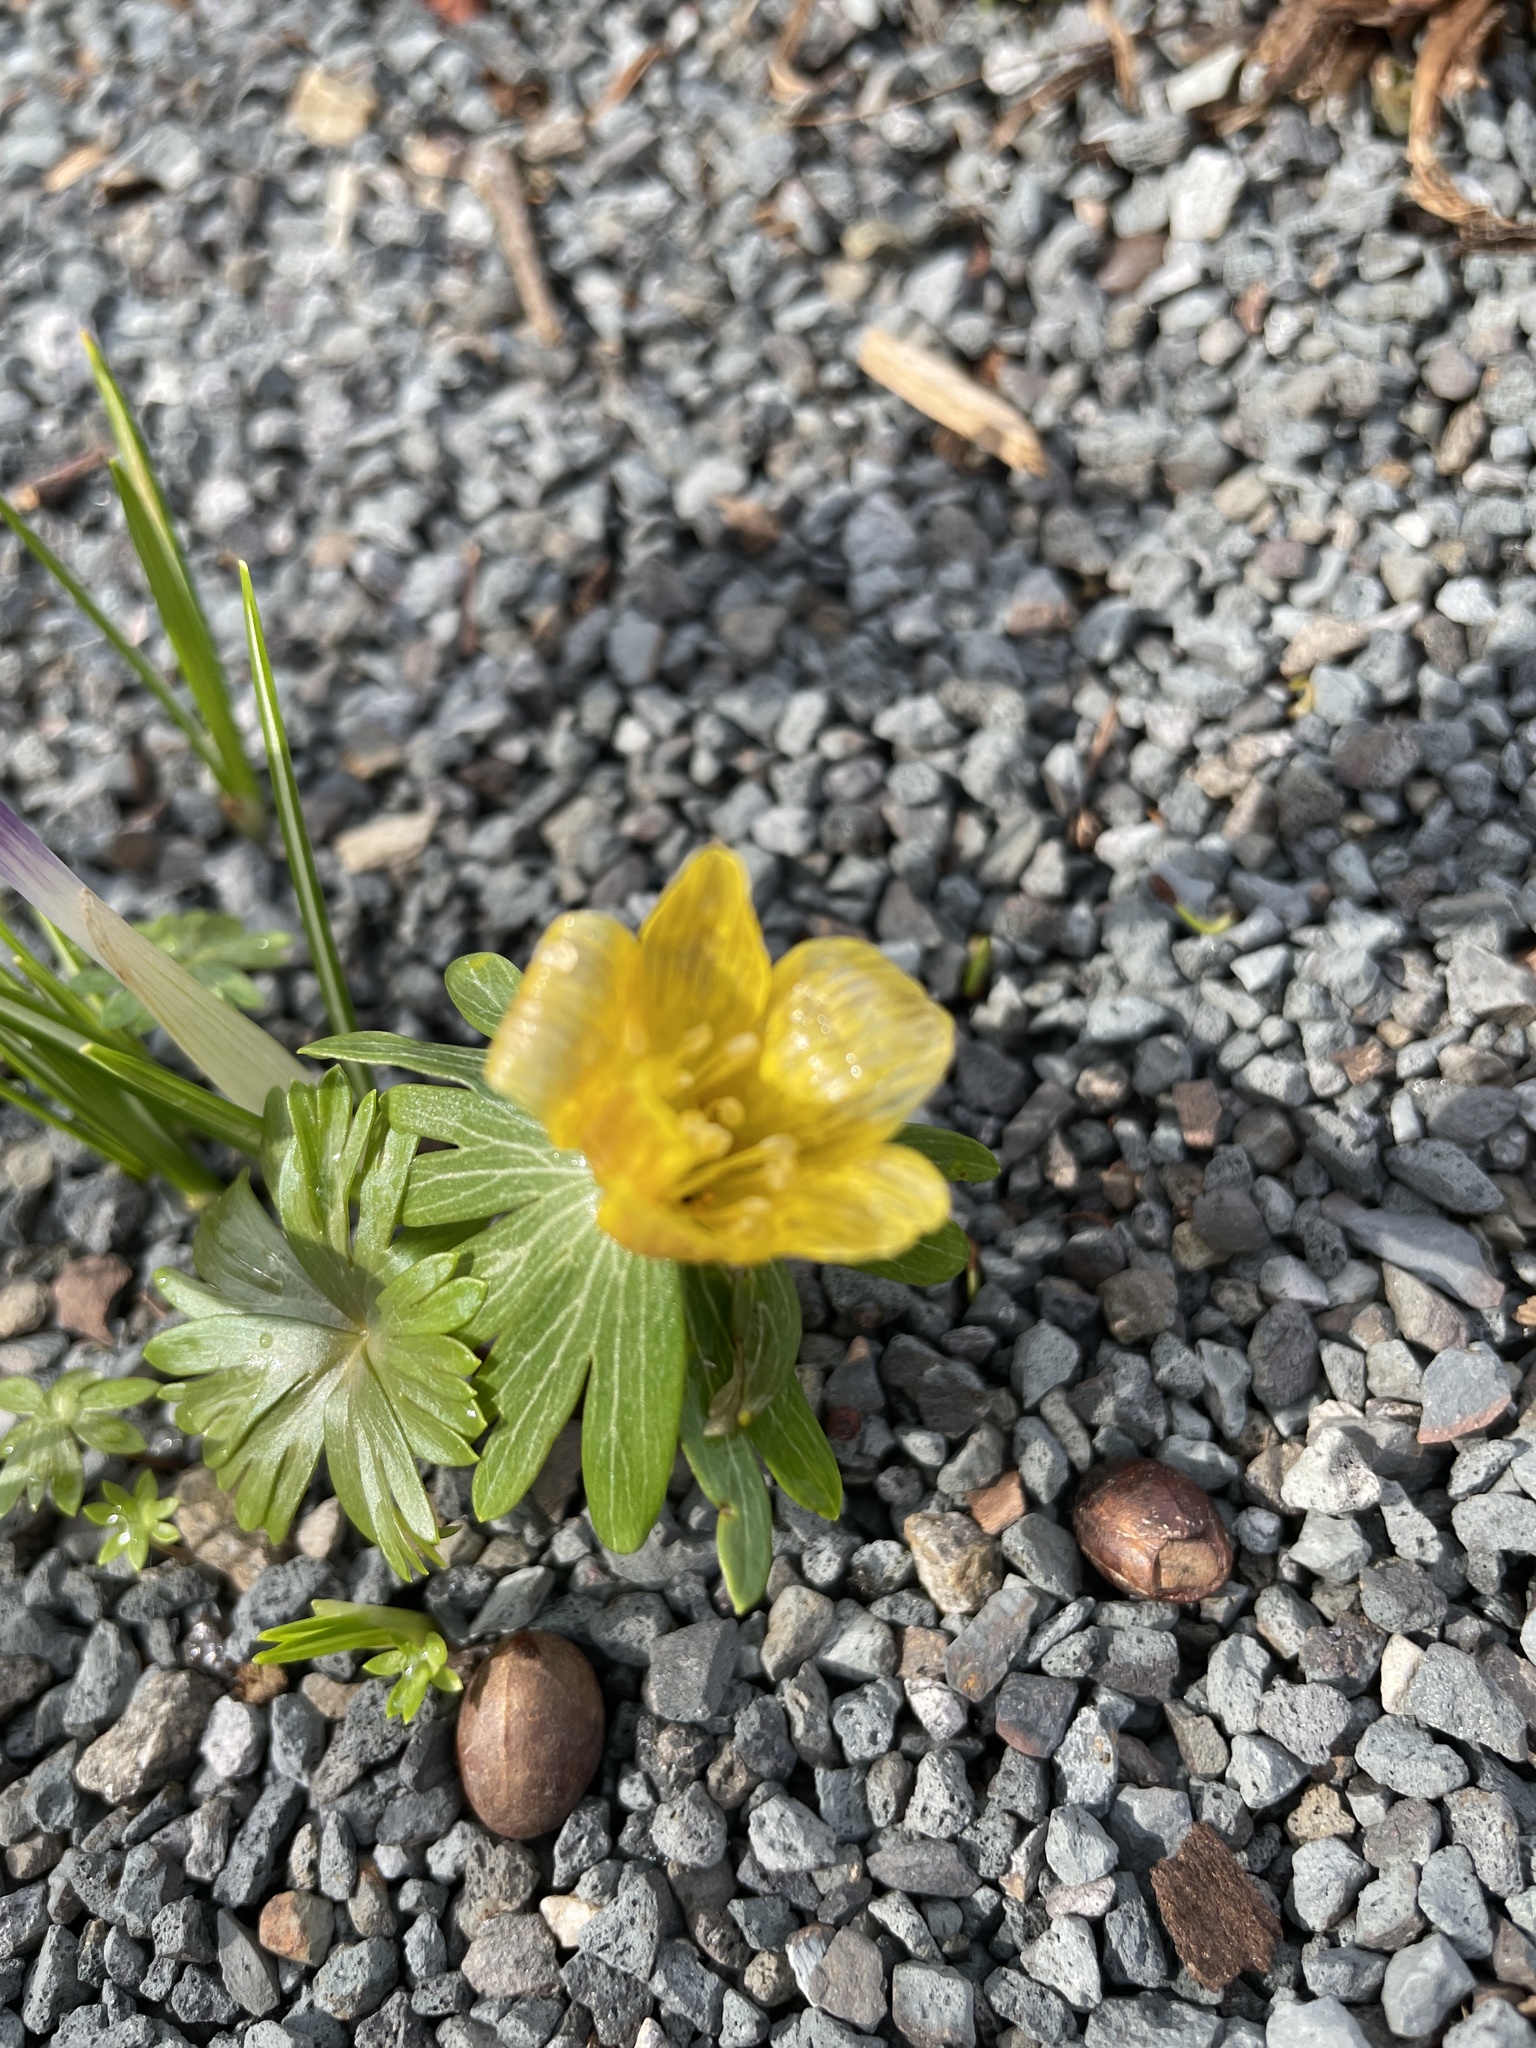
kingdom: Plantae
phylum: Tracheophyta
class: Magnoliopsida
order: Ranunculales
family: Ranunculaceae
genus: Eranthis
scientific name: Eranthis hyemalis
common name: Winter aconite
